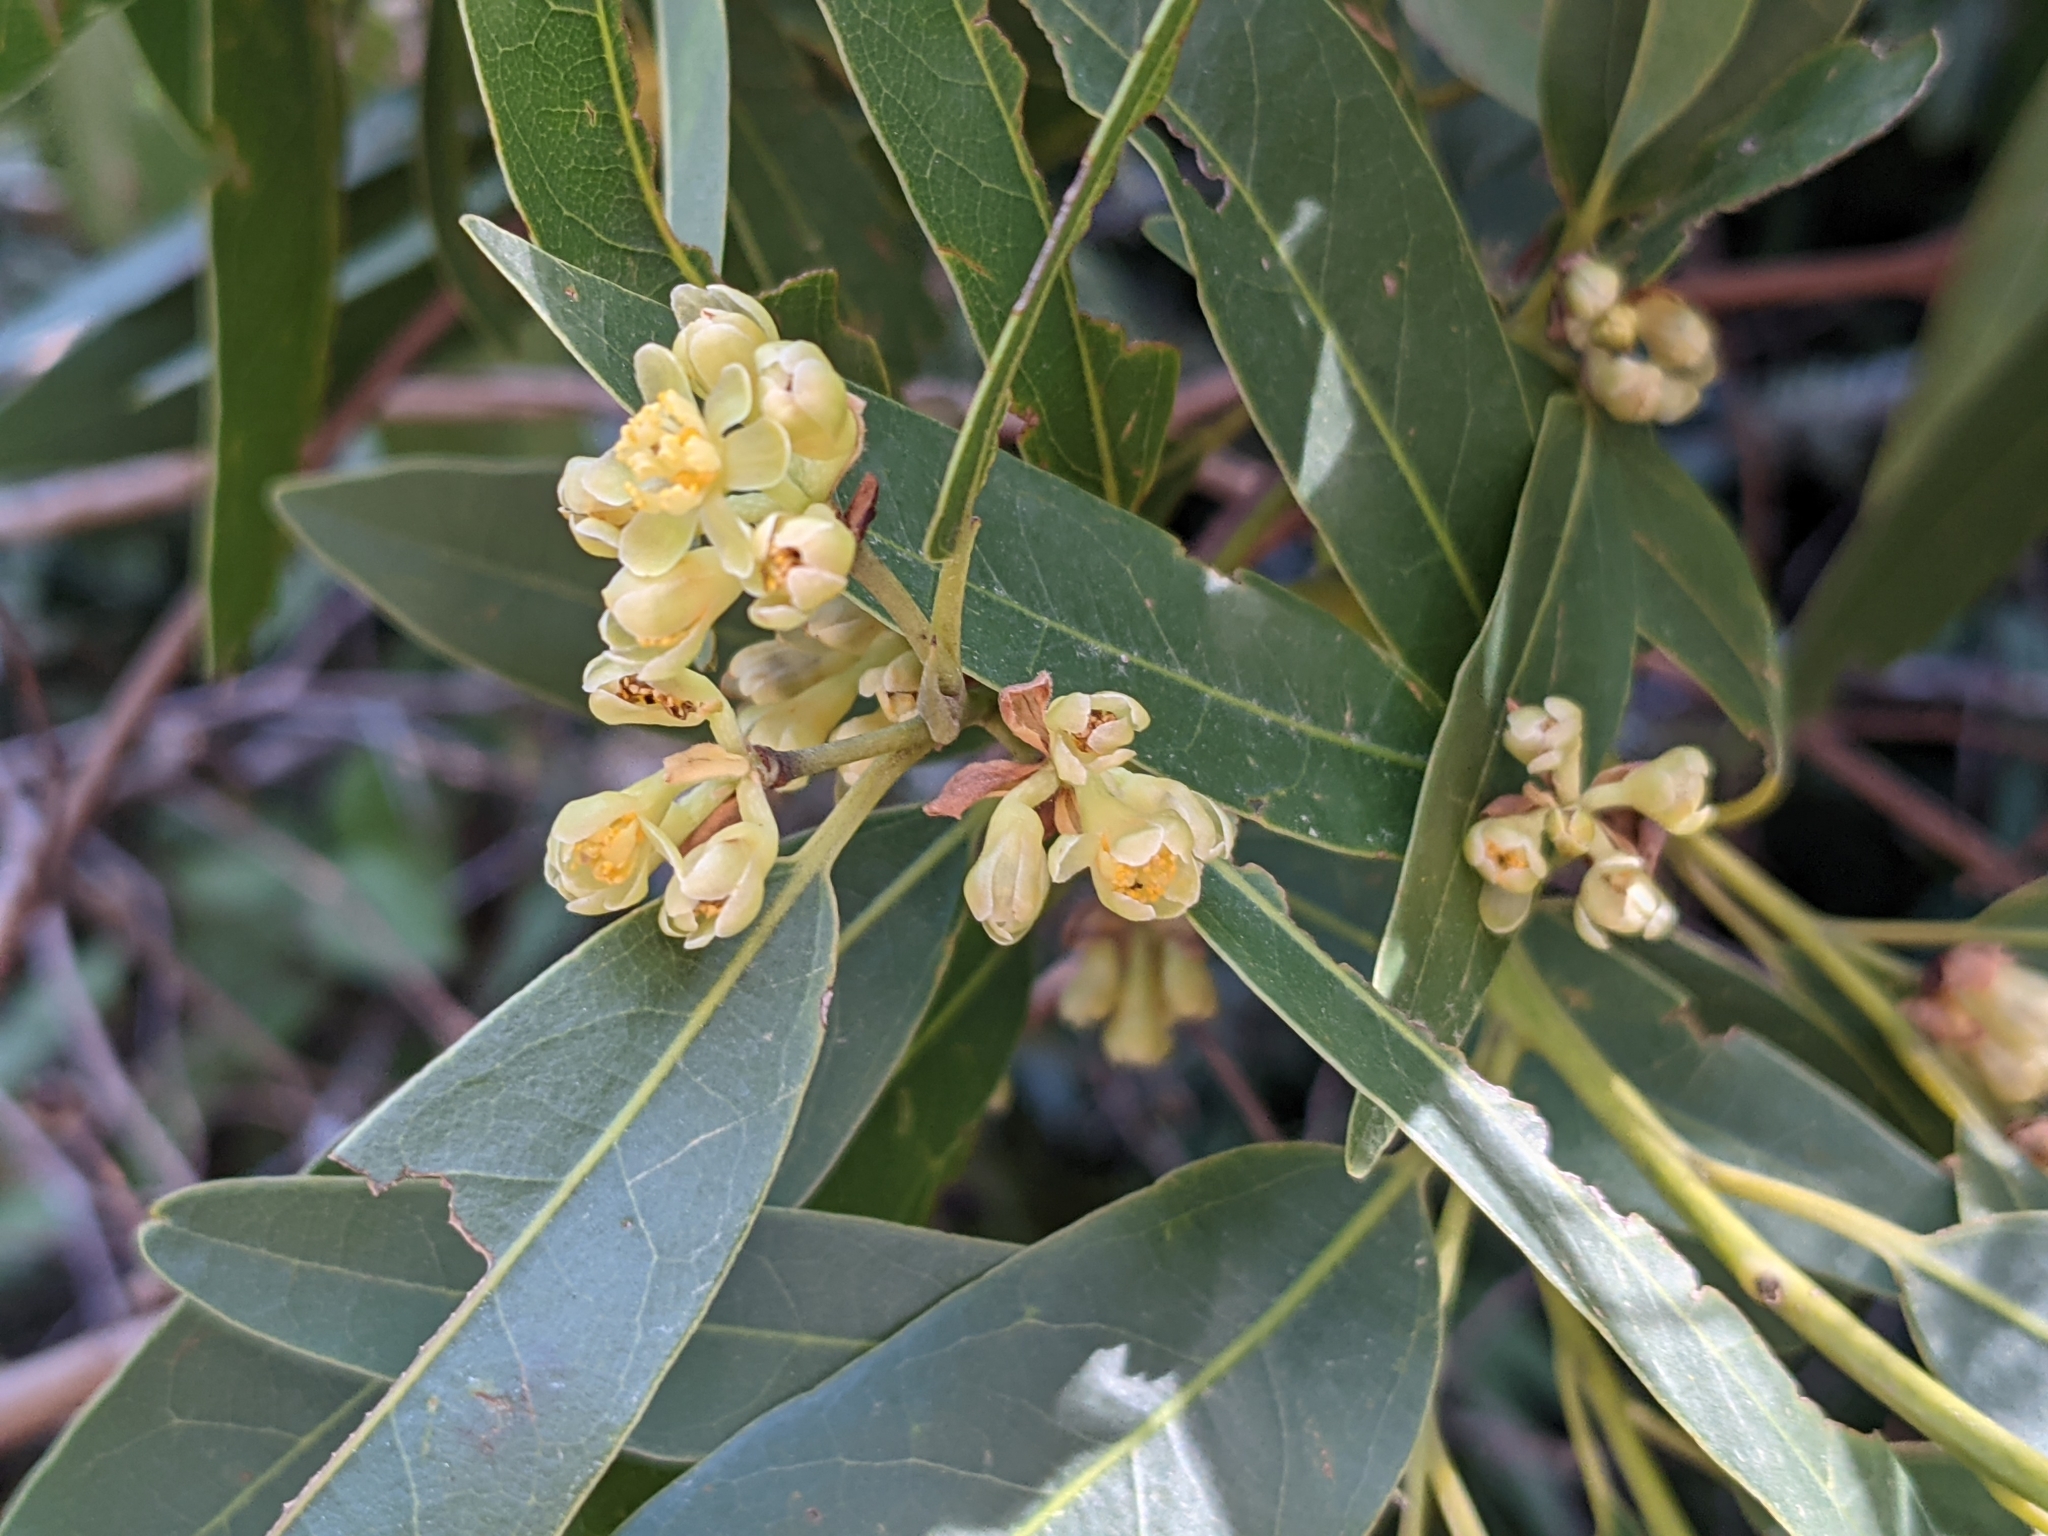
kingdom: Plantae
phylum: Tracheophyta
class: Magnoliopsida
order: Laurales
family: Lauraceae
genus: Umbellularia
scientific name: Umbellularia californica
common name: California bay
